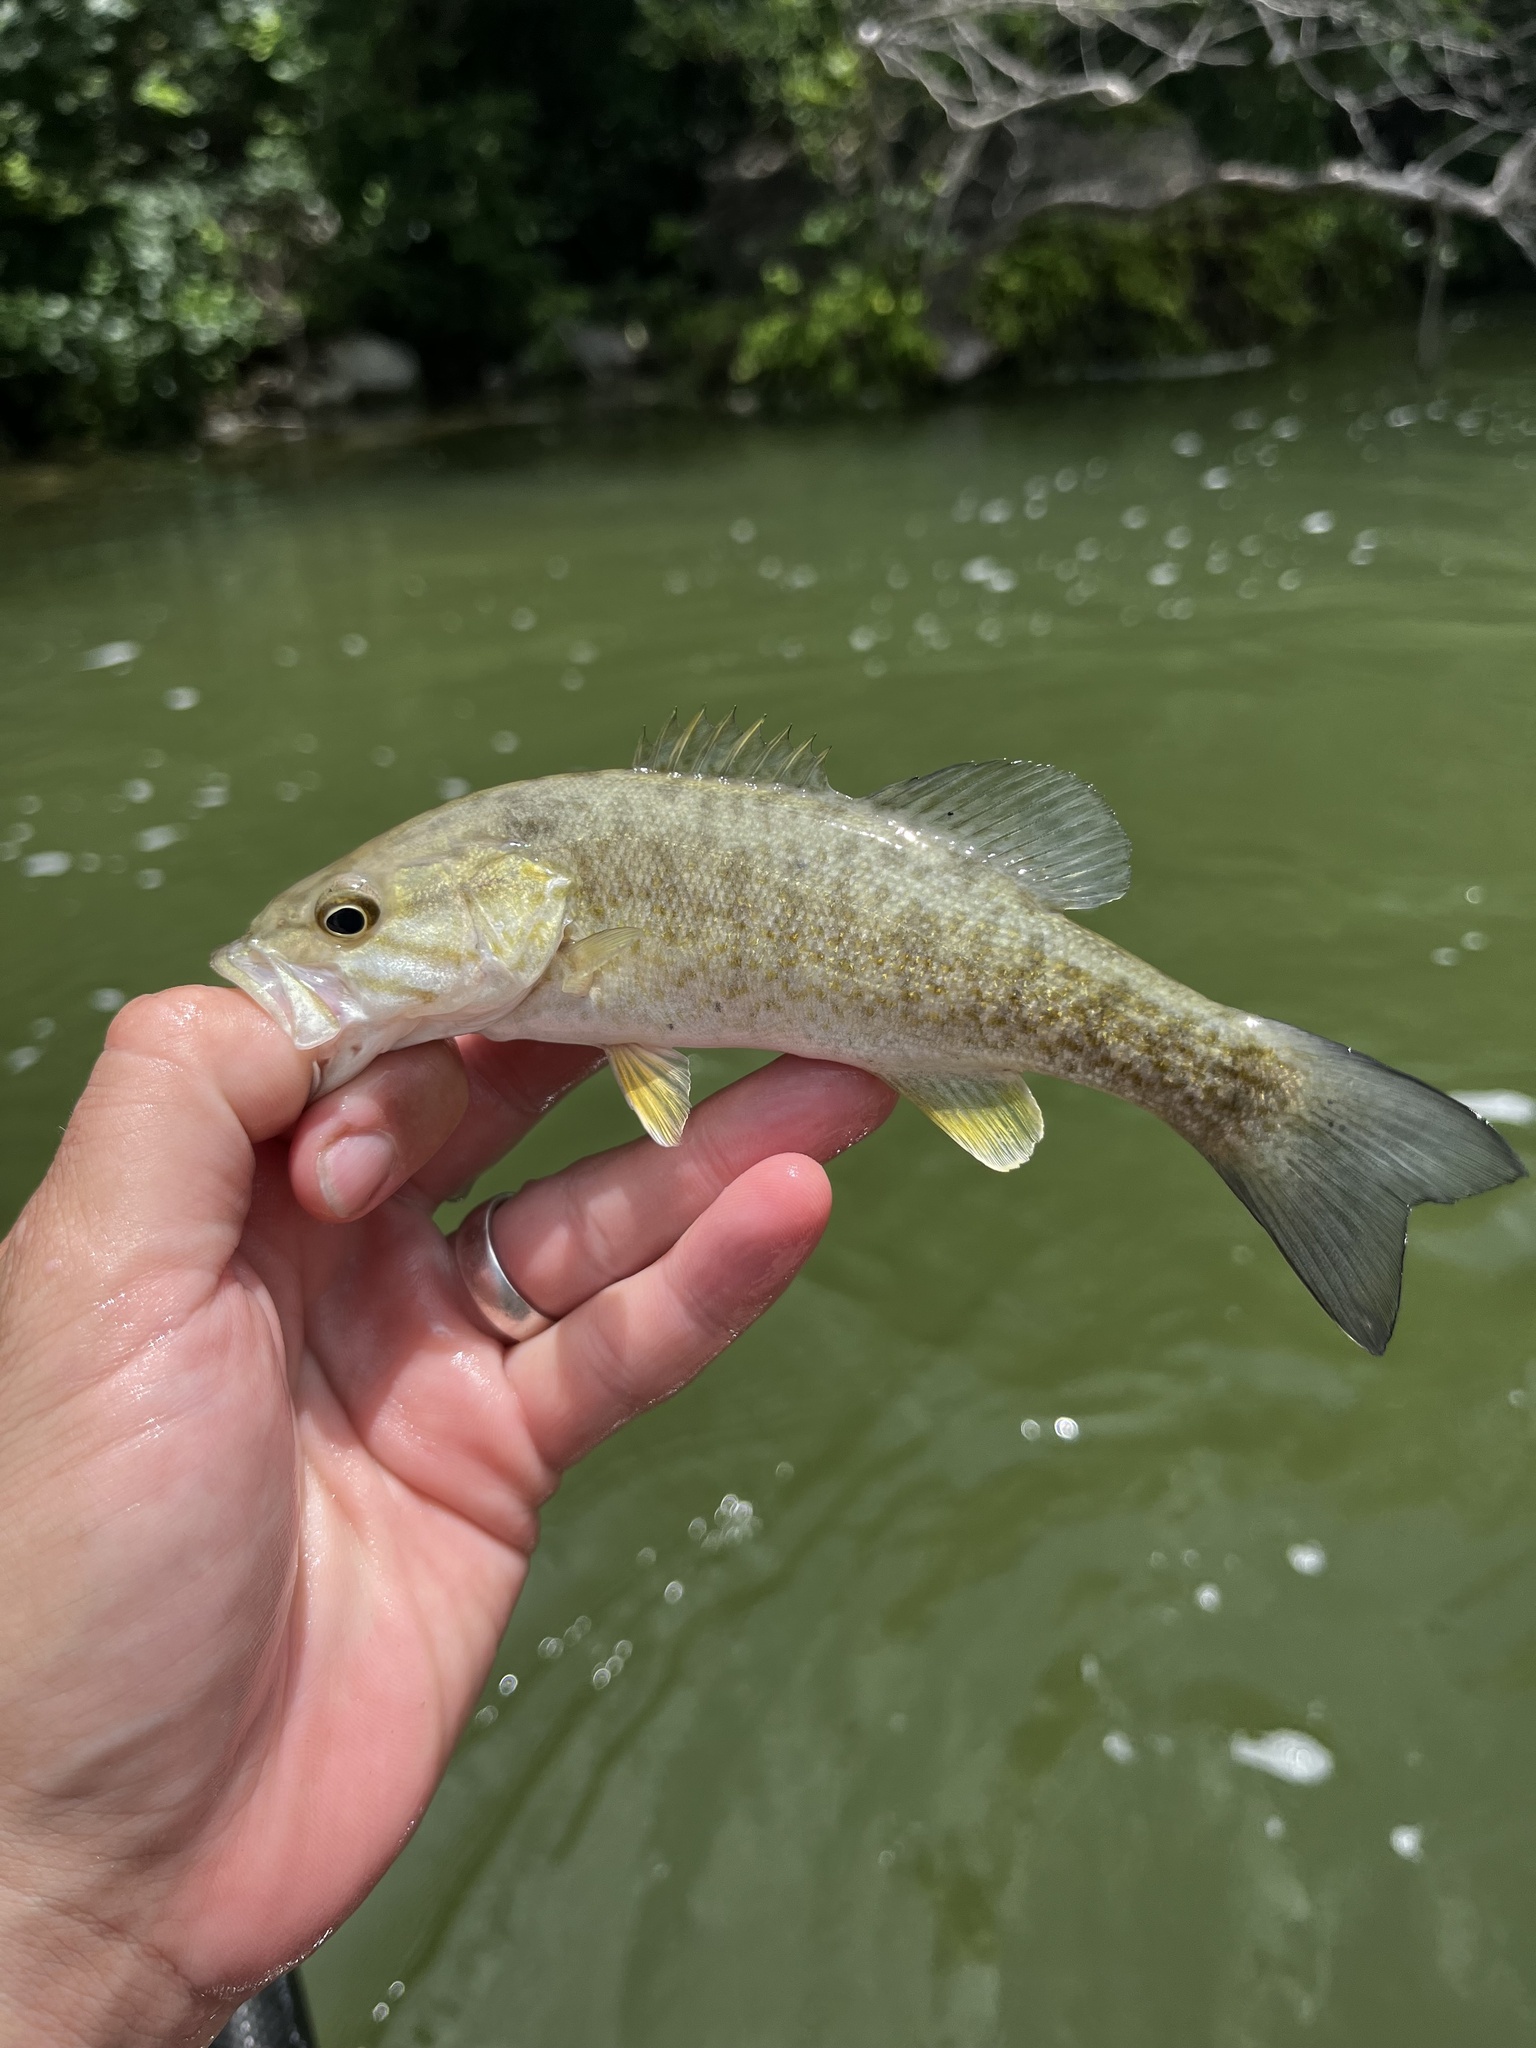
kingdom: Animalia
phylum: Chordata
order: Perciformes
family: Centrarchidae
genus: Micropterus
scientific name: Micropterus dolomieu
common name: Smallmouth bass
